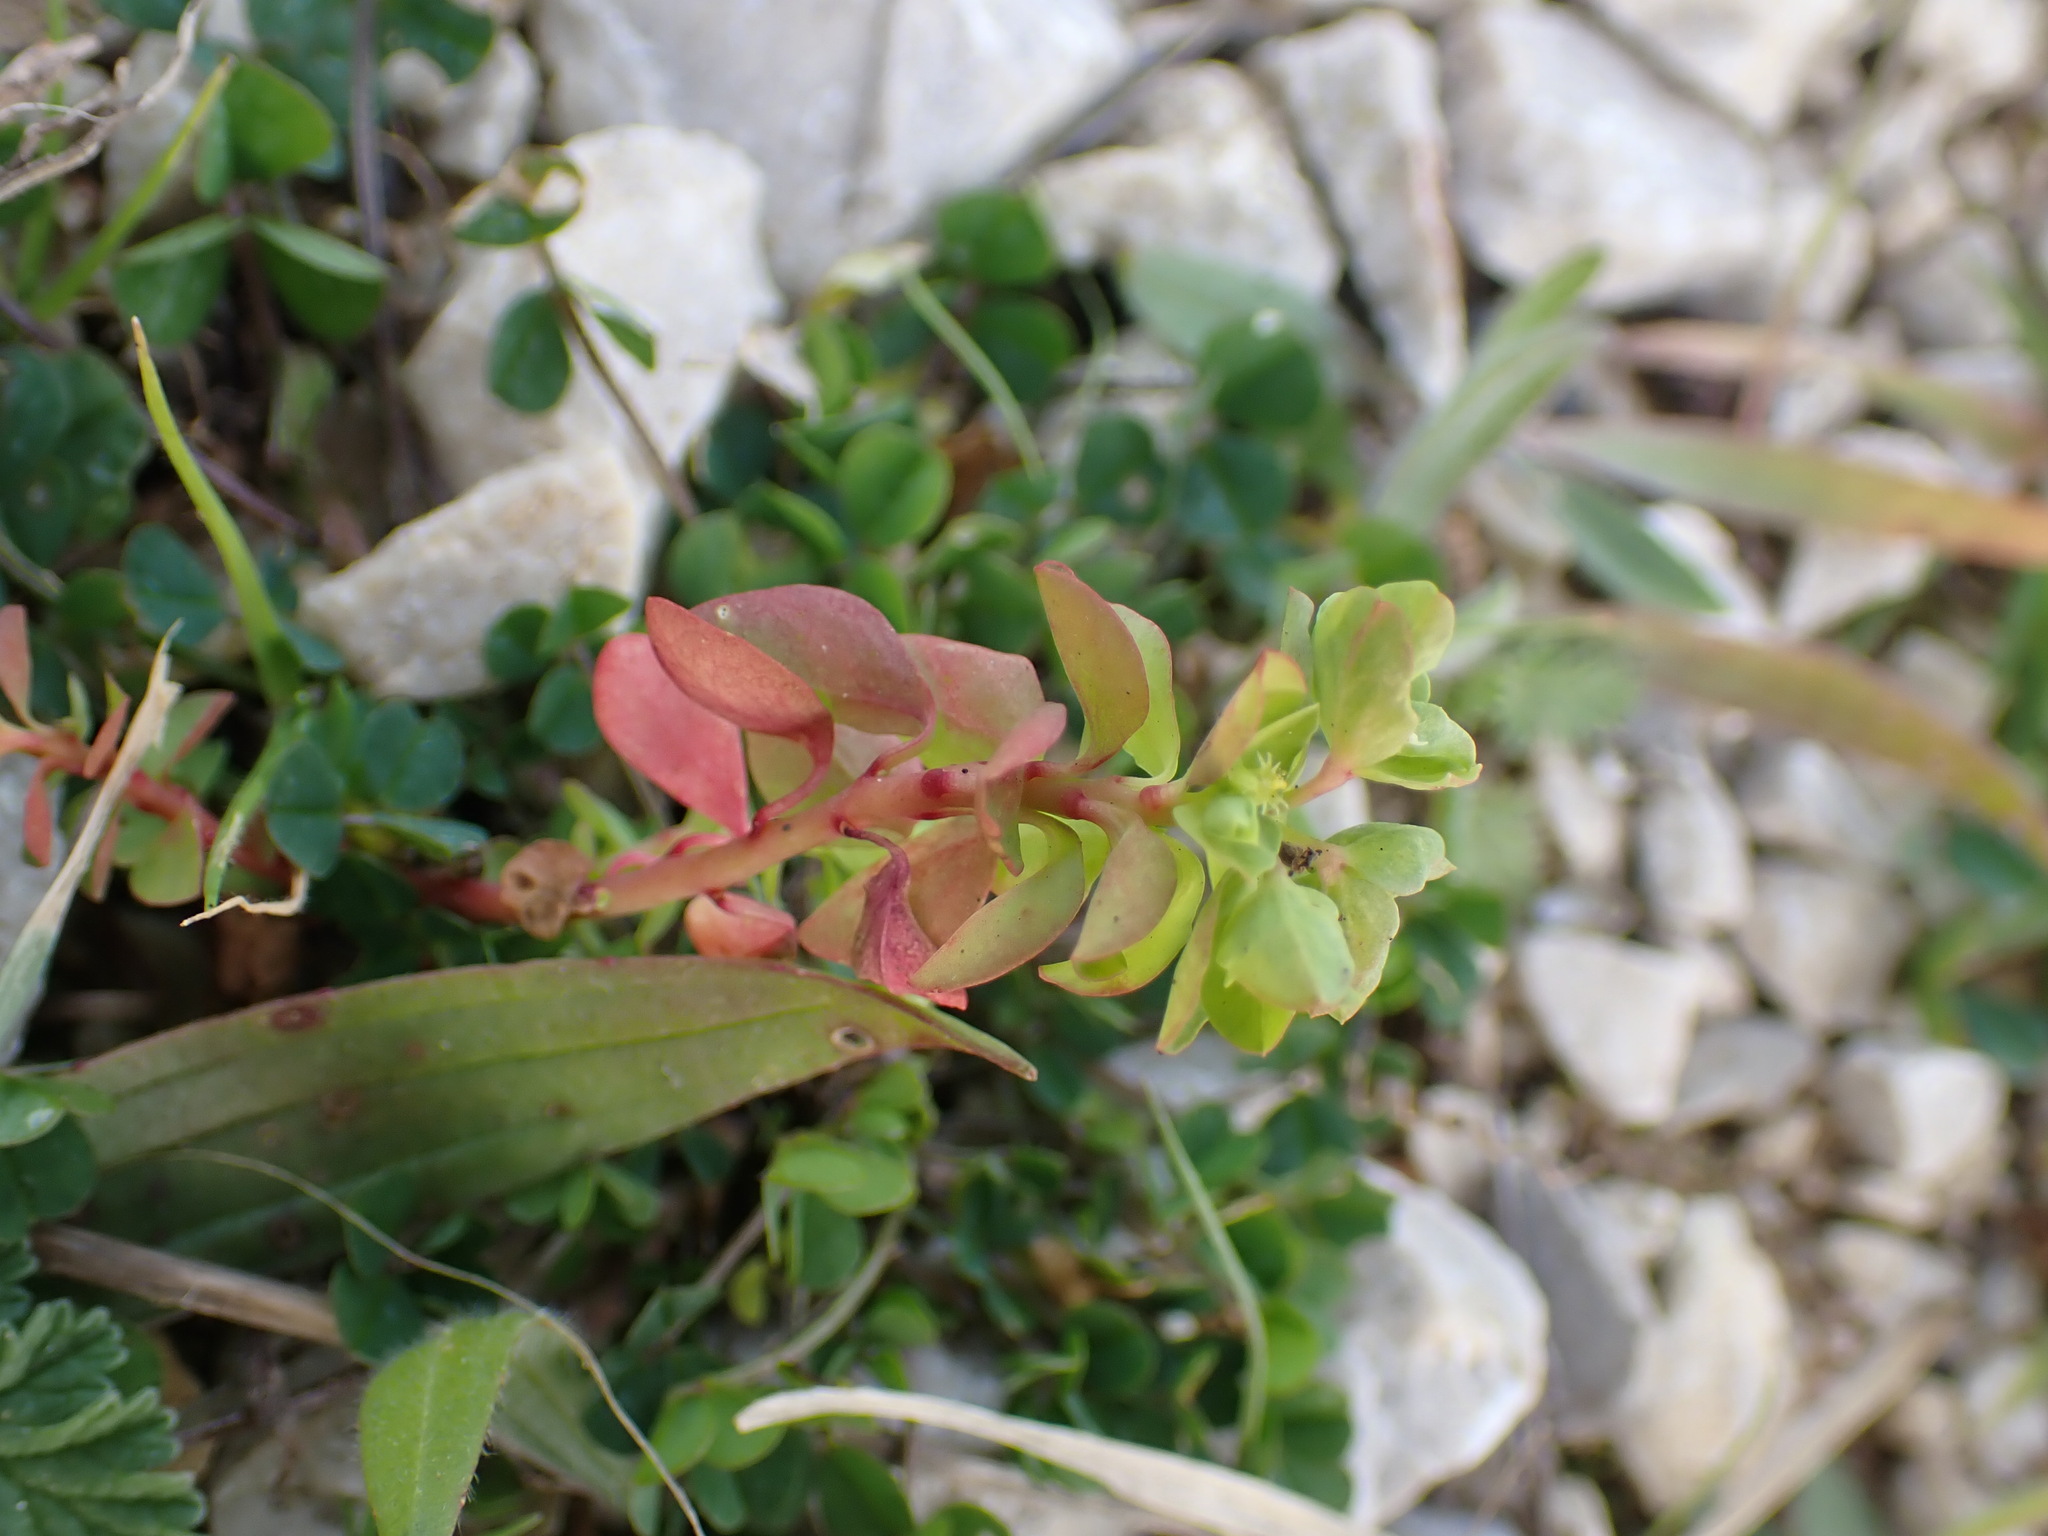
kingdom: Plantae
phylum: Tracheophyta
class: Magnoliopsida
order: Malpighiales
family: Euphorbiaceae
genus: Euphorbia
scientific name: Euphorbia peplus
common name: Petty spurge
